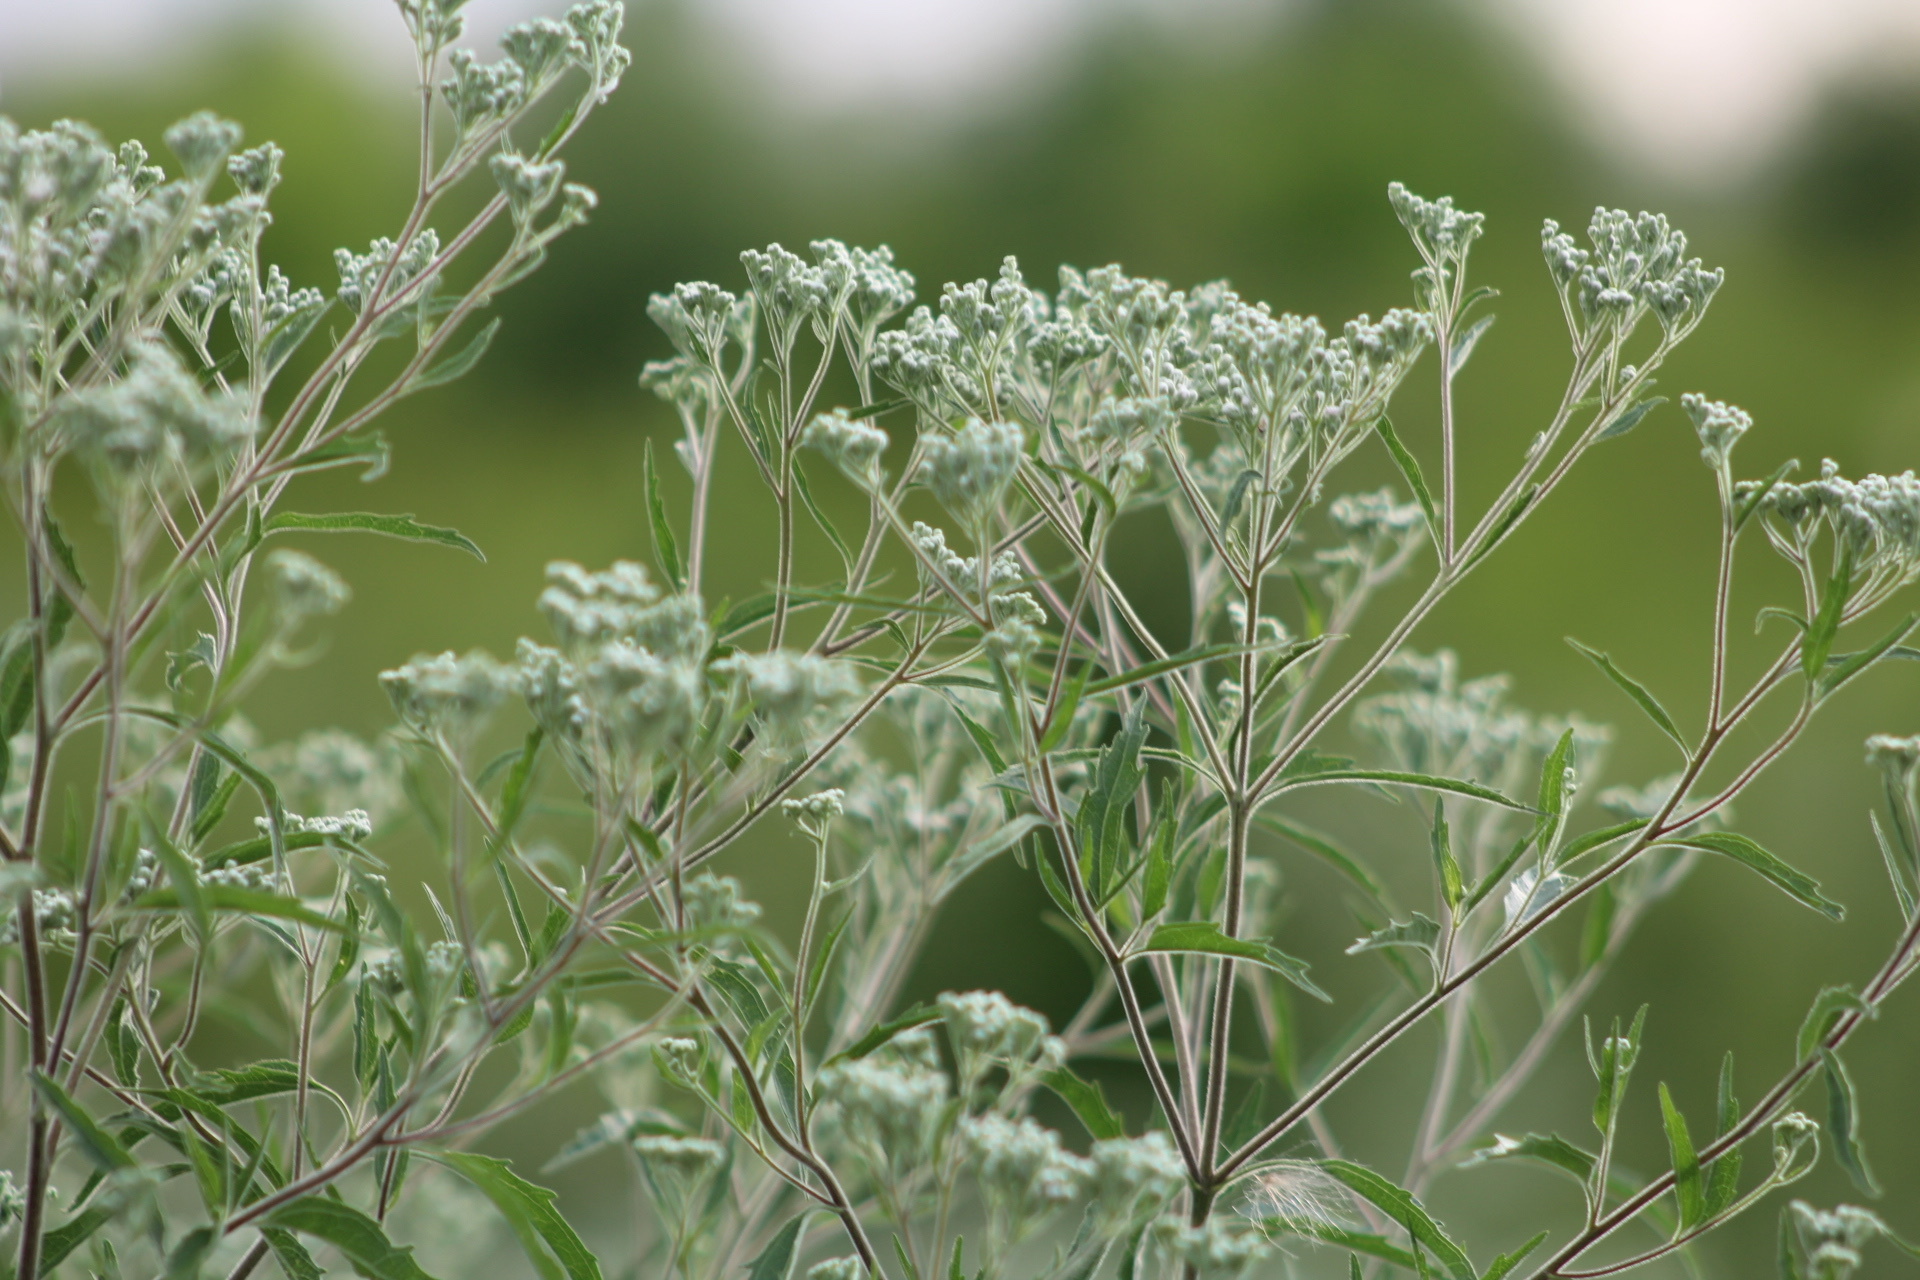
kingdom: Plantae
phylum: Tracheophyta
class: Magnoliopsida
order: Asterales
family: Asteraceae
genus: Eupatorium
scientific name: Eupatorium serotinum
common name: Late boneset
